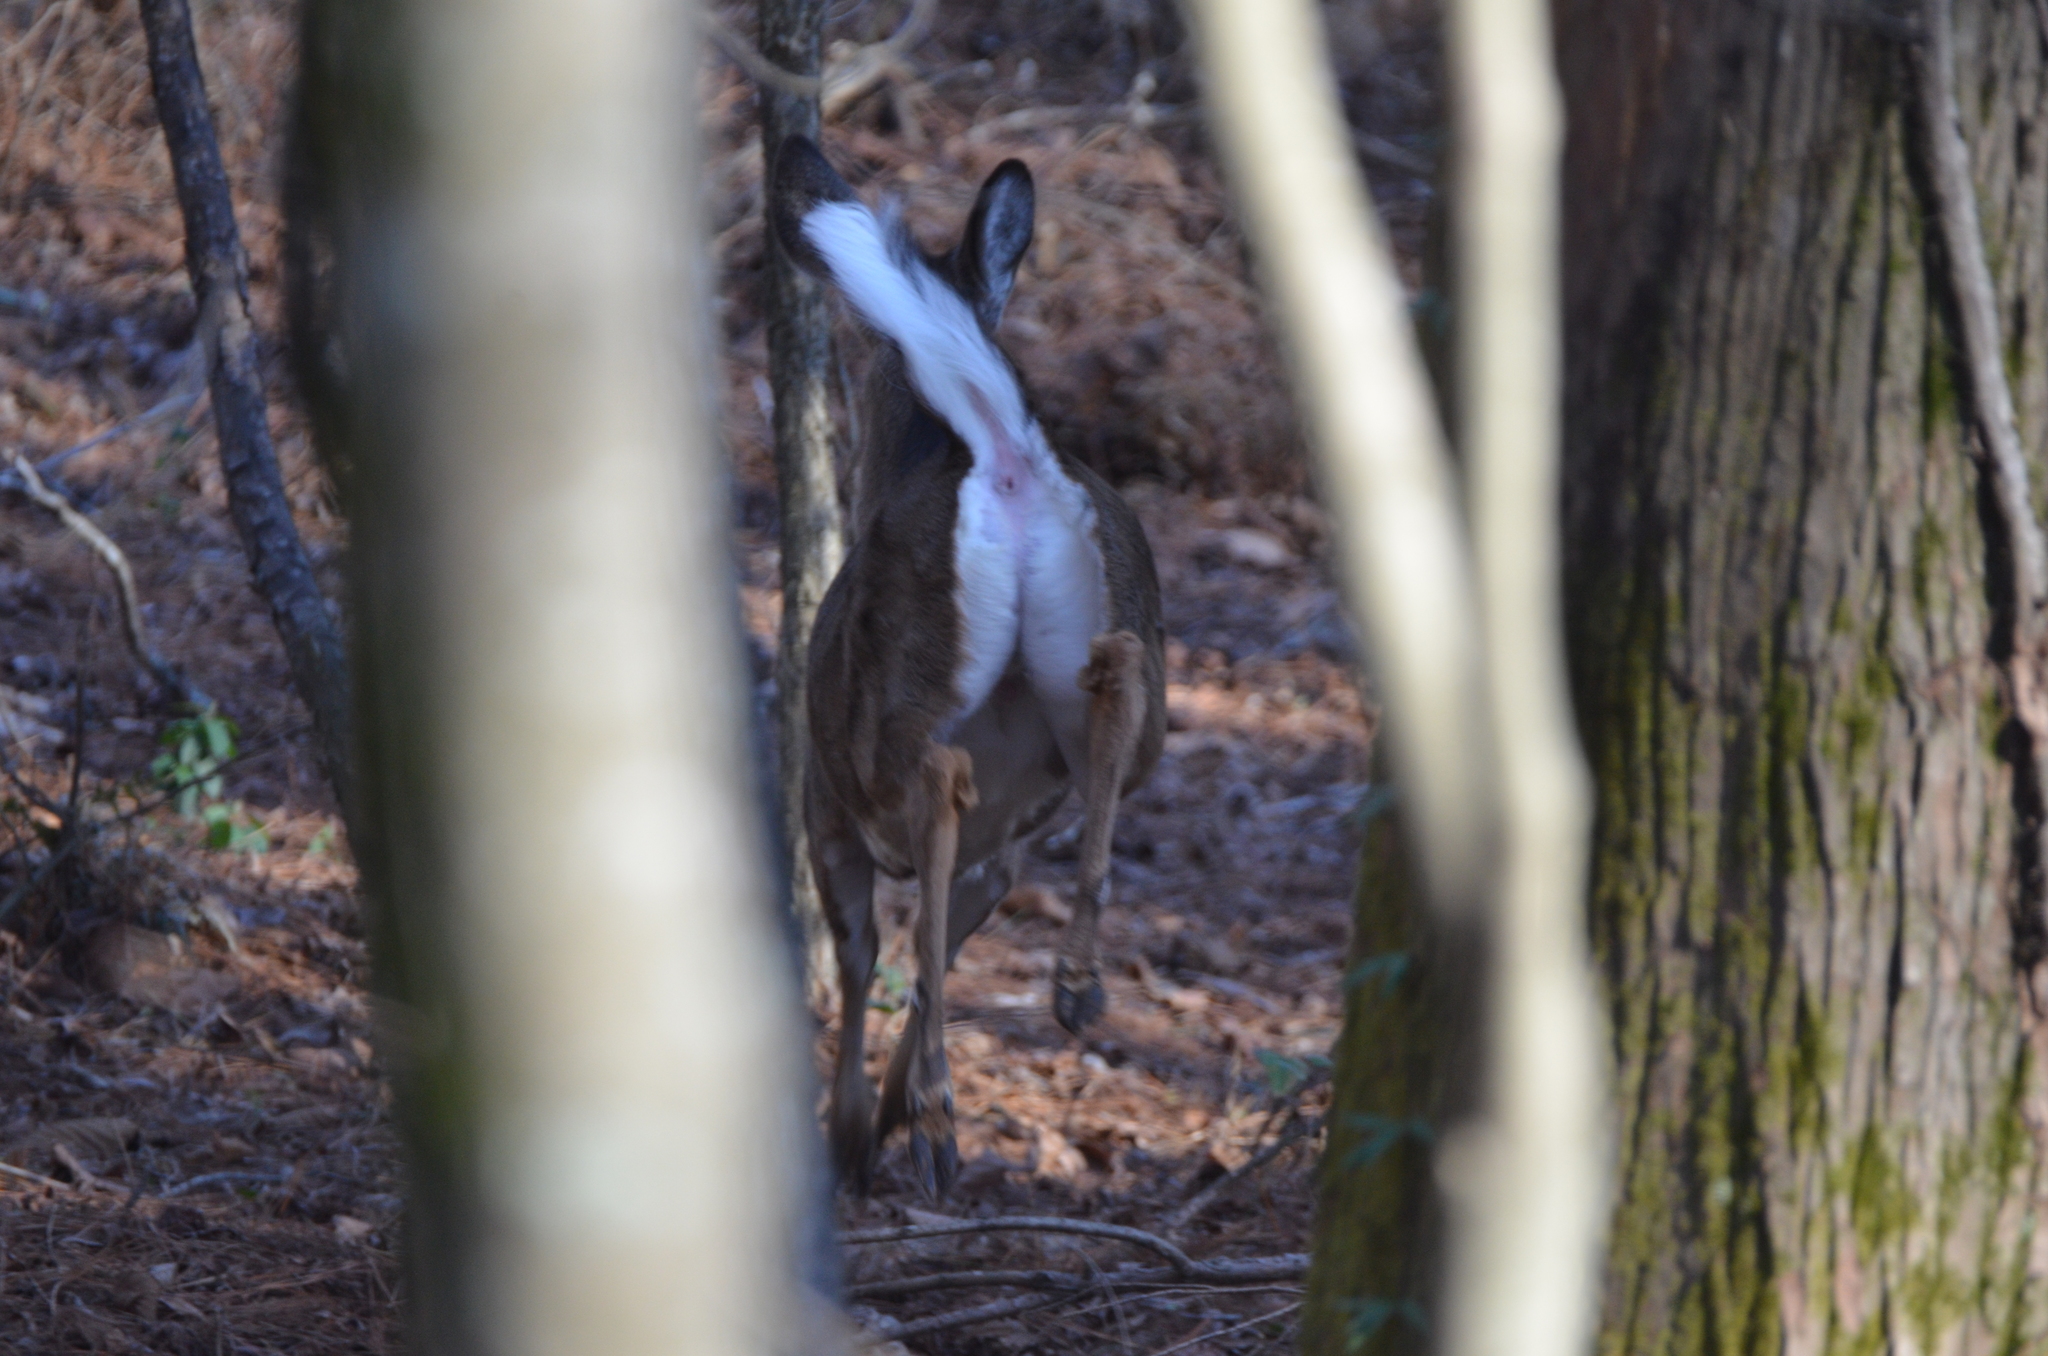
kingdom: Animalia
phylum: Chordata
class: Mammalia
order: Artiodactyla
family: Cervidae
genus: Odocoileus
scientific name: Odocoileus virginianus
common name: White-tailed deer
